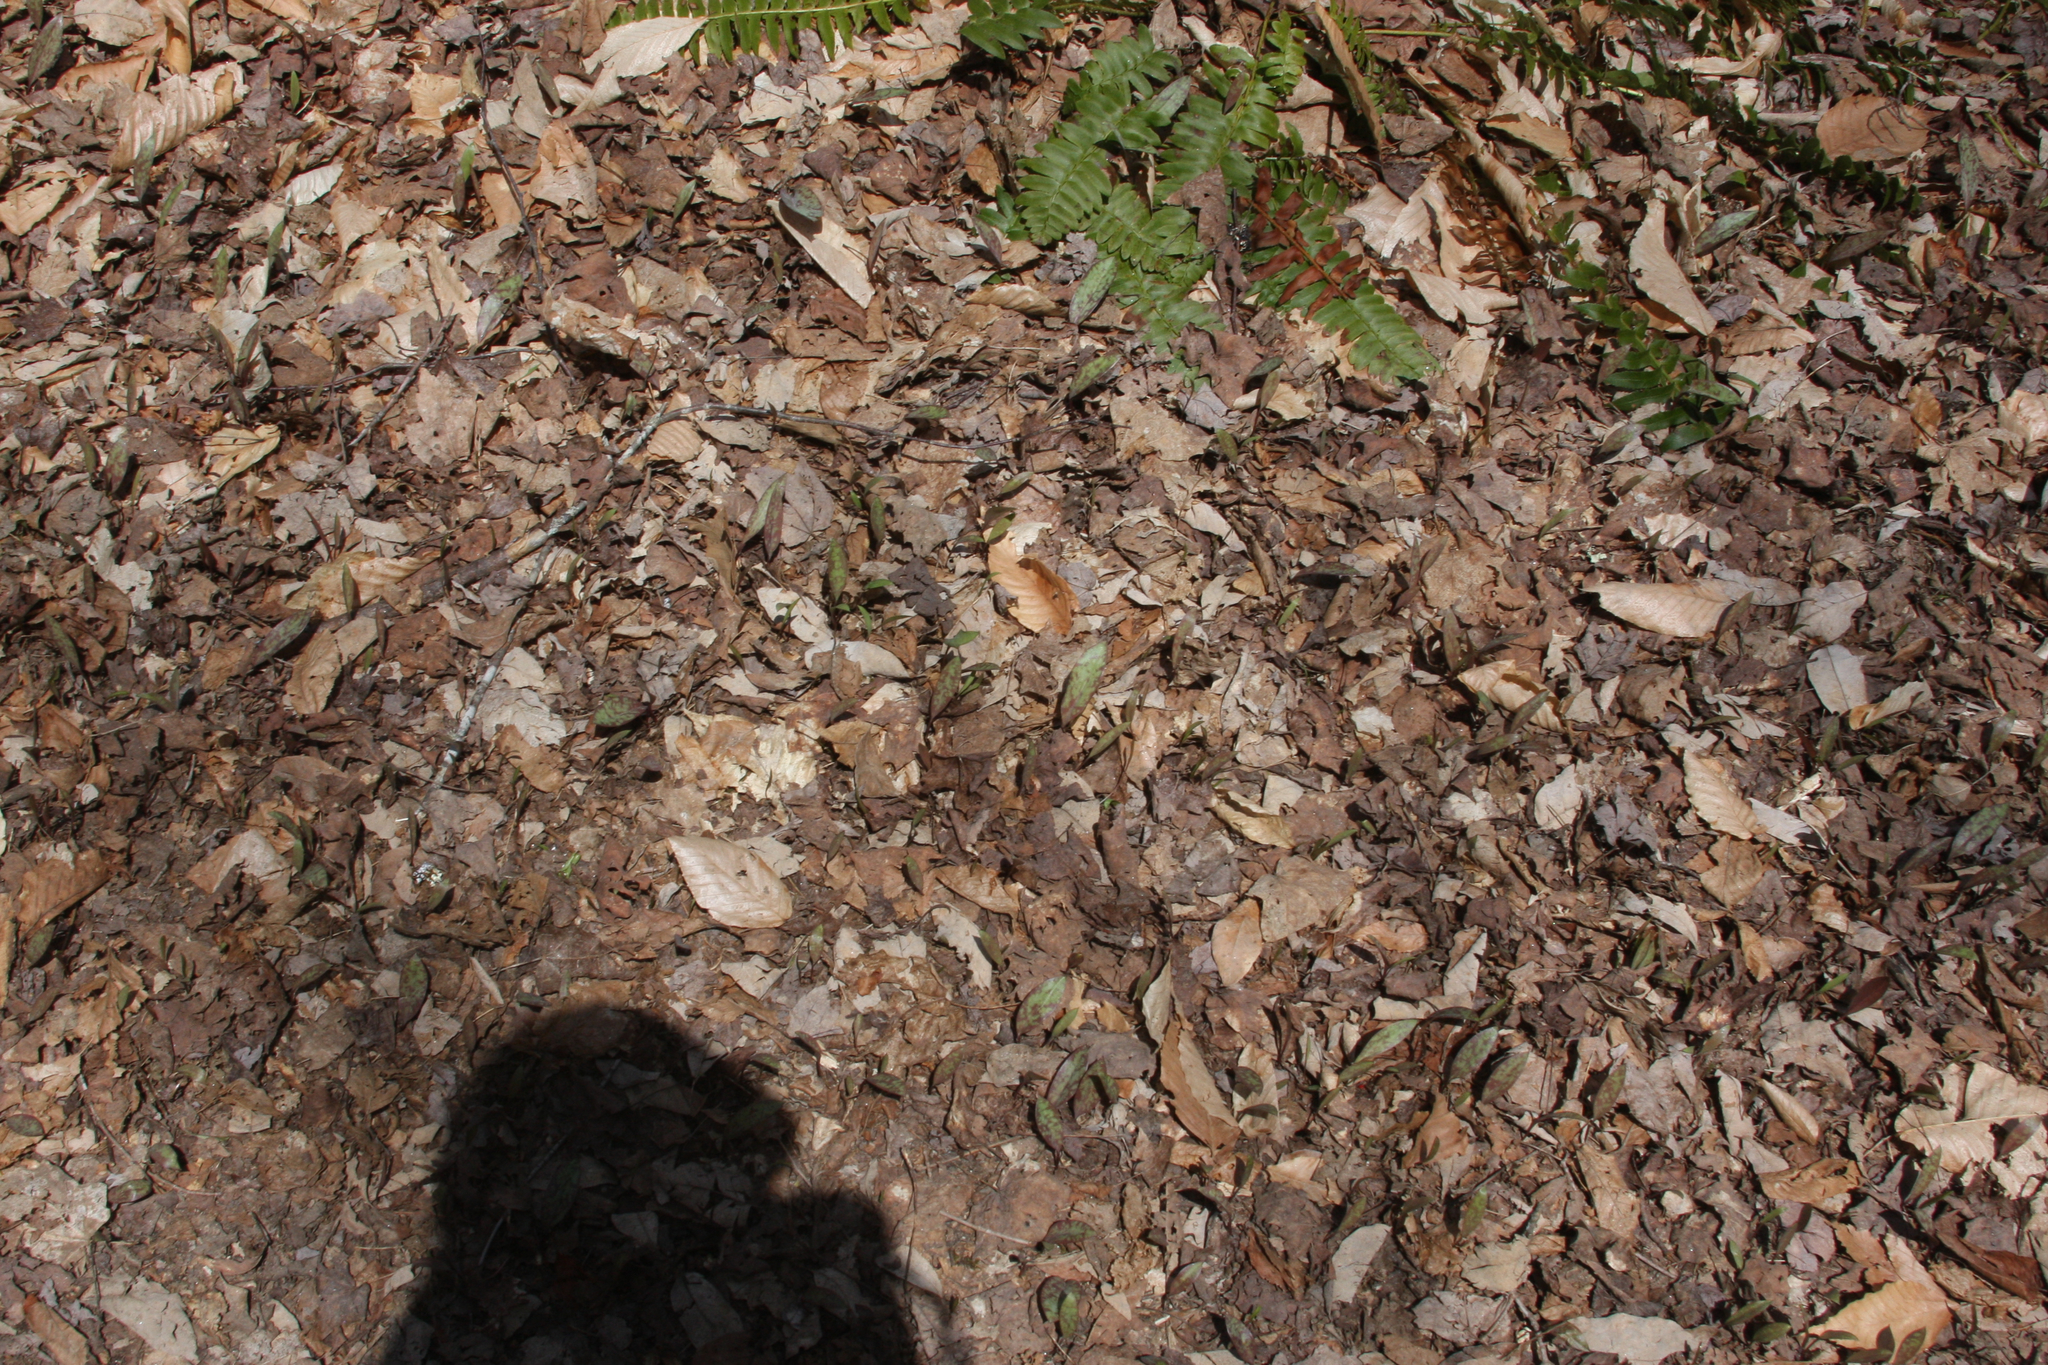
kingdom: Plantae
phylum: Tracheophyta
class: Liliopsida
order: Liliales
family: Liliaceae
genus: Erythronium
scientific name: Erythronium americanum
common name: Yellow adder's-tongue
